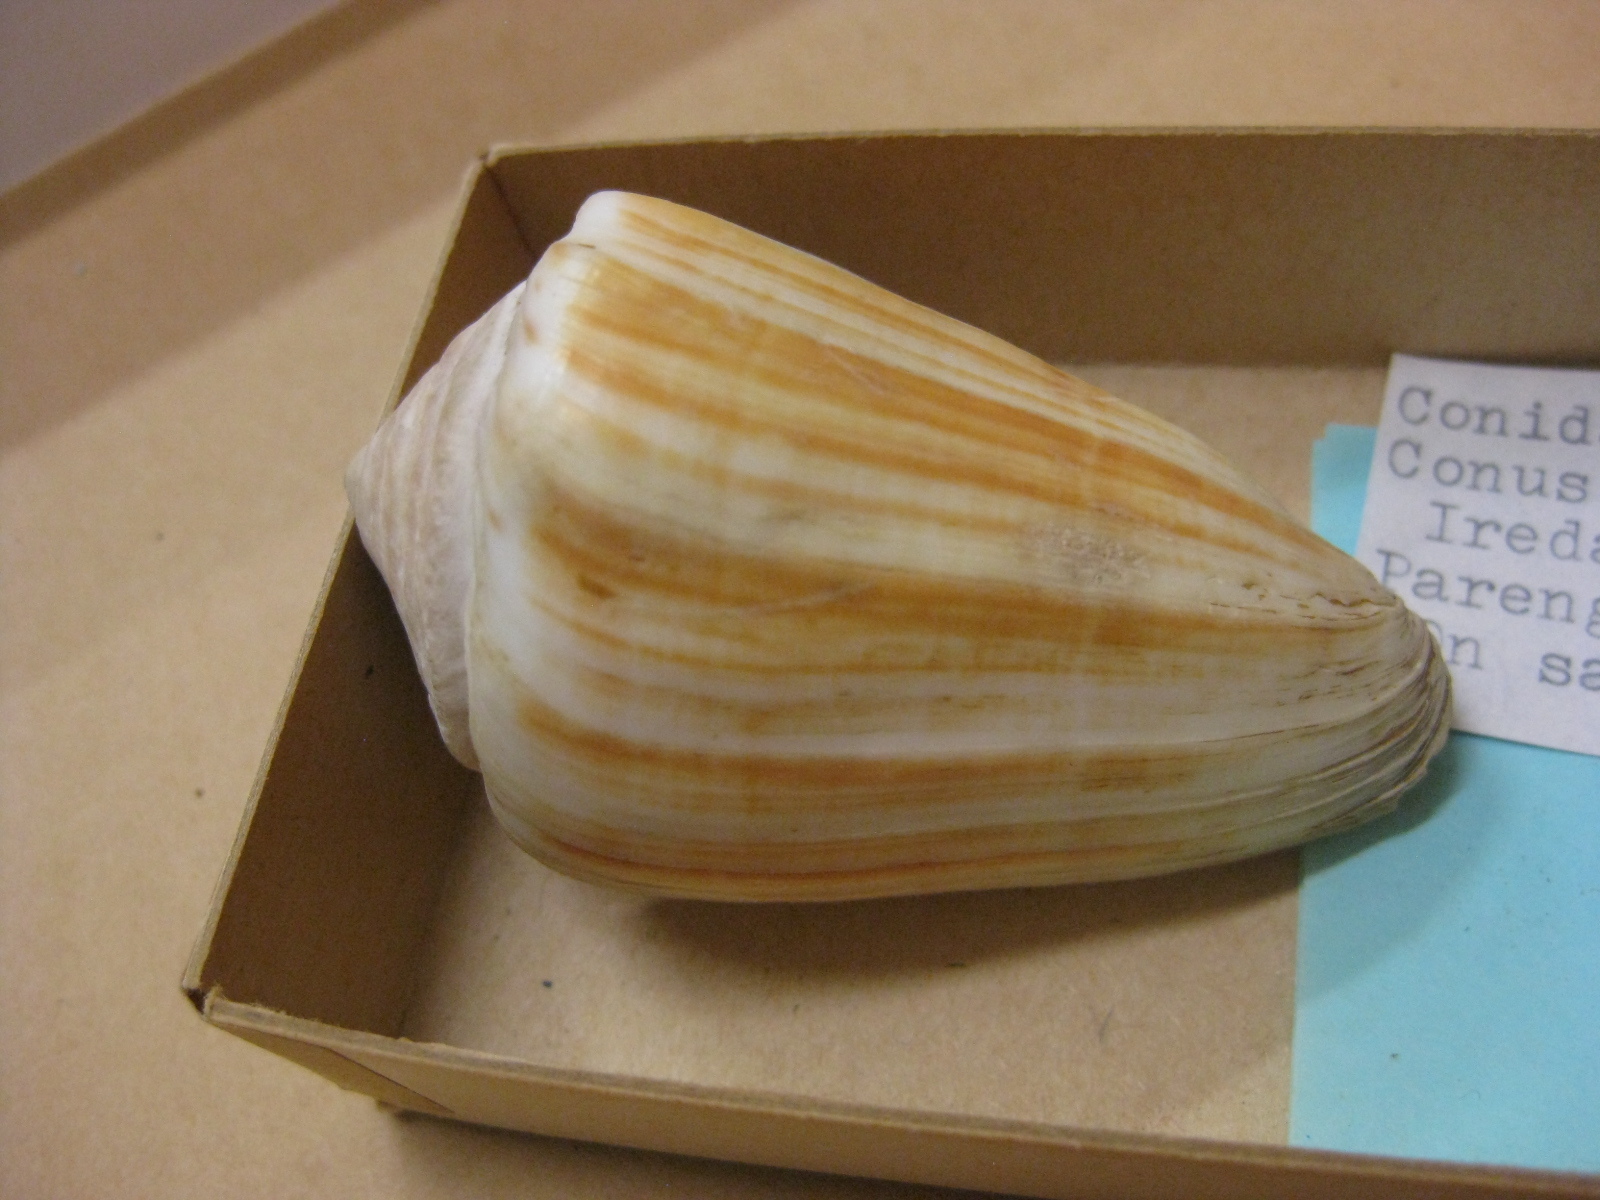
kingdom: Animalia
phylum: Mollusca
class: Gastropoda
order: Neogastropoda
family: Conidae
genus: Conus
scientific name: Conus lischkeanus
